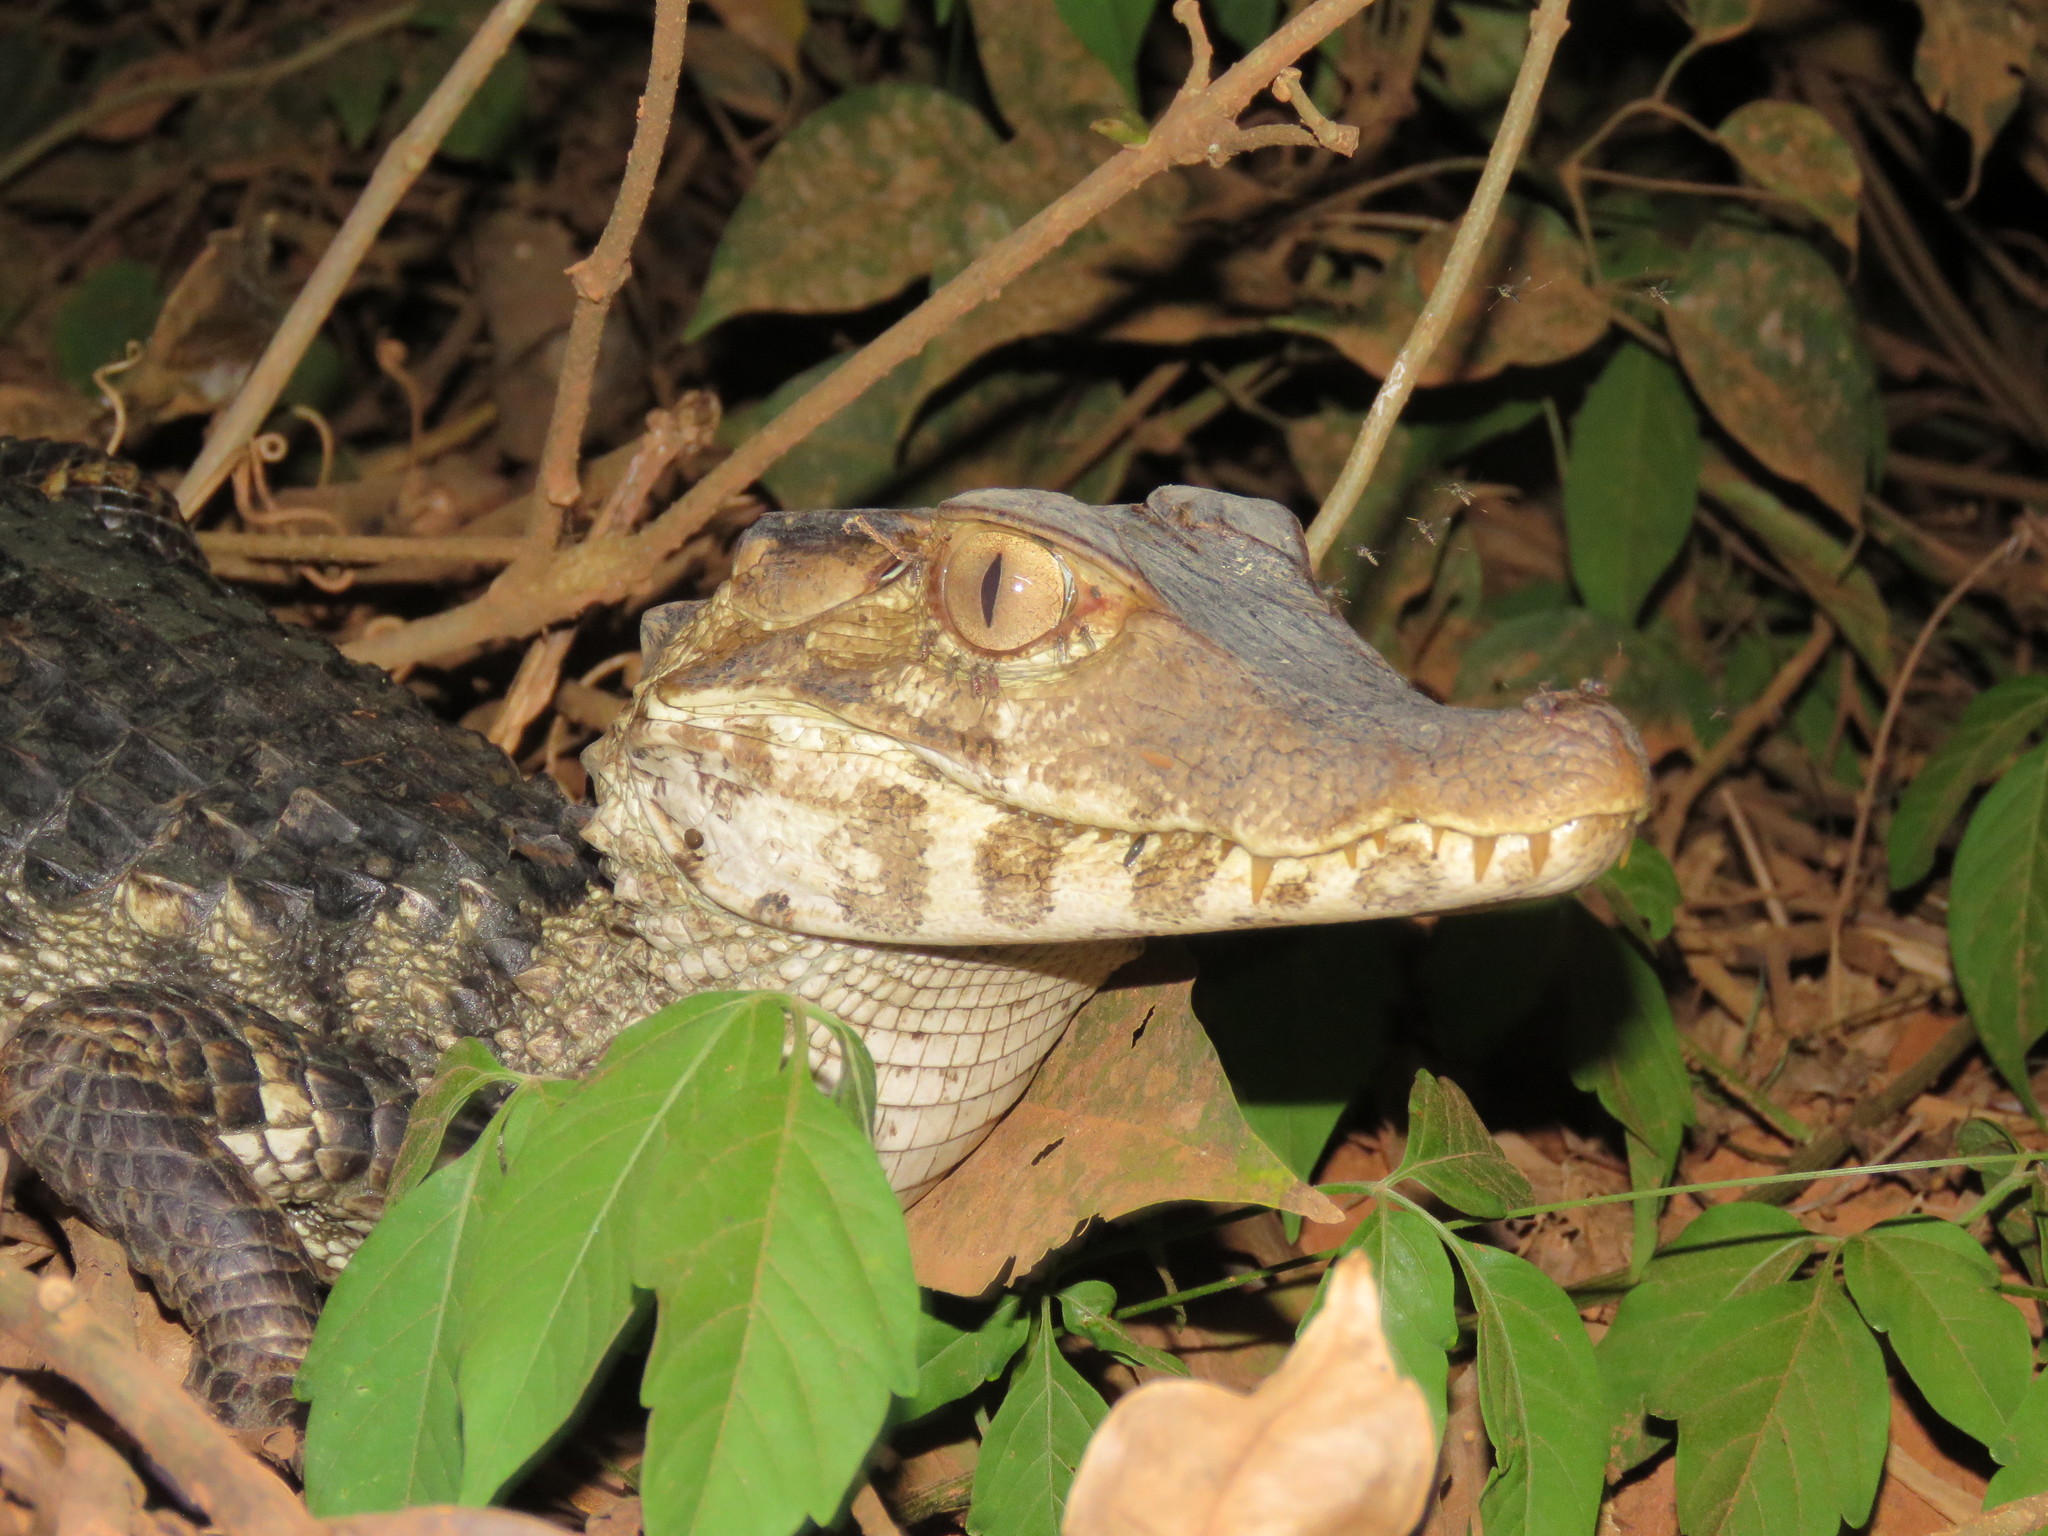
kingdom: Animalia
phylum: Chordata
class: Crocodylia
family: Alligatoridae
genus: Paleosuchus
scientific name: Paleosuchus palpebrosus
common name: Cuvier's smooth-fronted caiman
